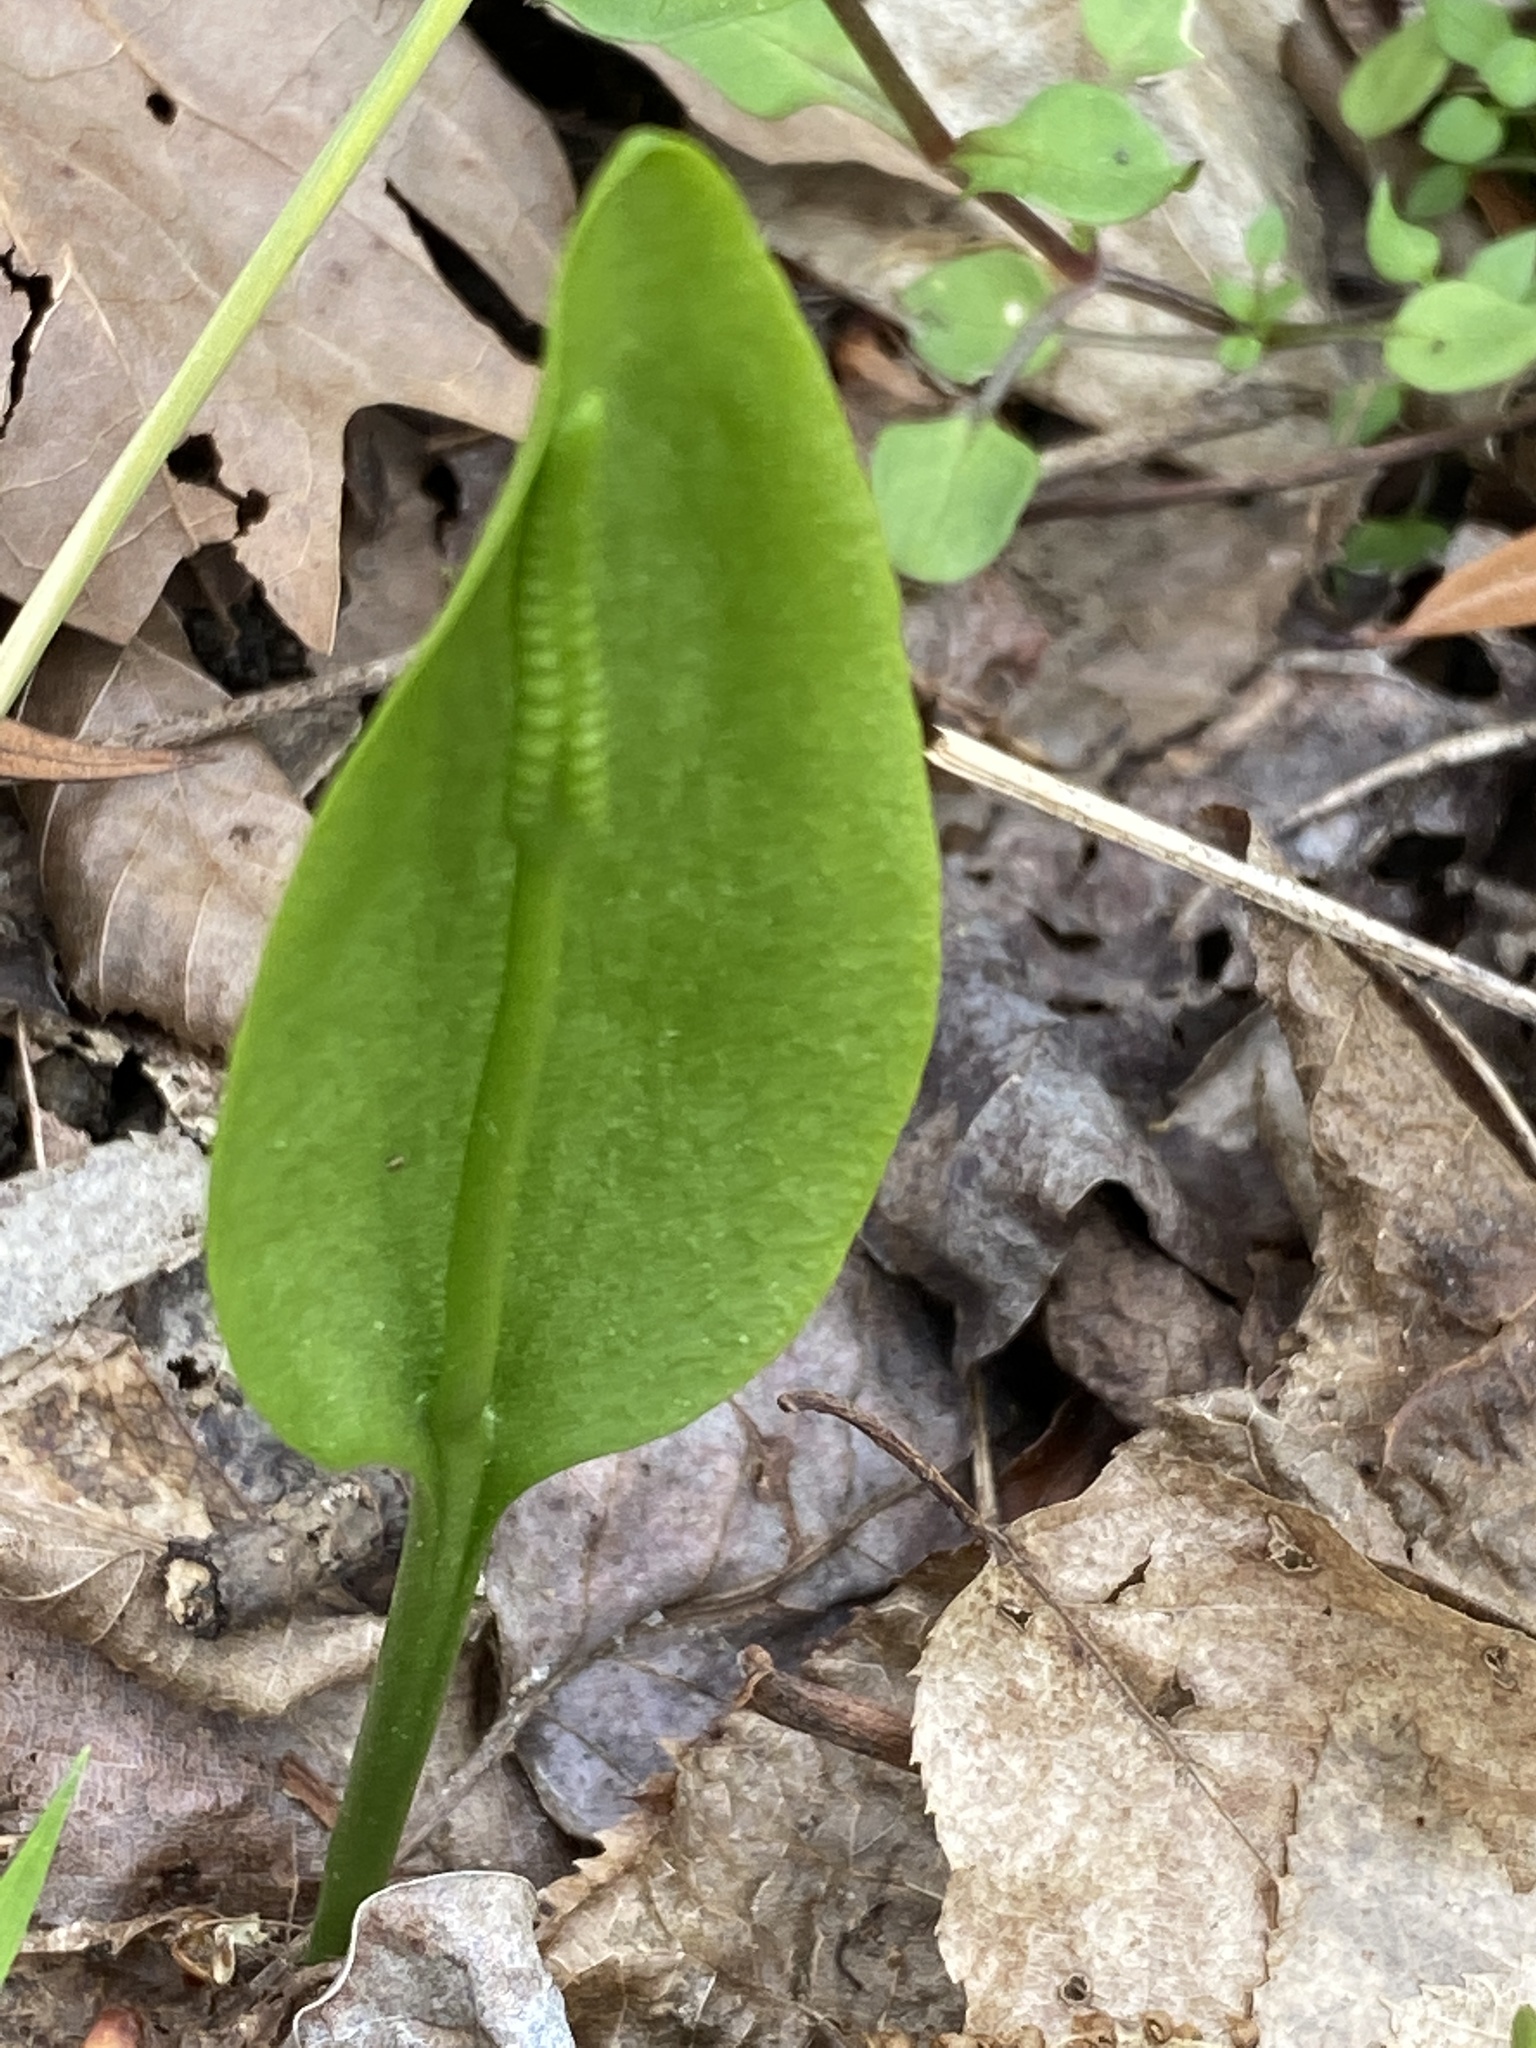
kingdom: Plantae
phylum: Tracheophyta
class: Polypodiopsida
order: Ophioglossales
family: Ophioglossaceae
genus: Ophioglossum
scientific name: Ophioglossum vulgatum
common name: Adder's-tongue
